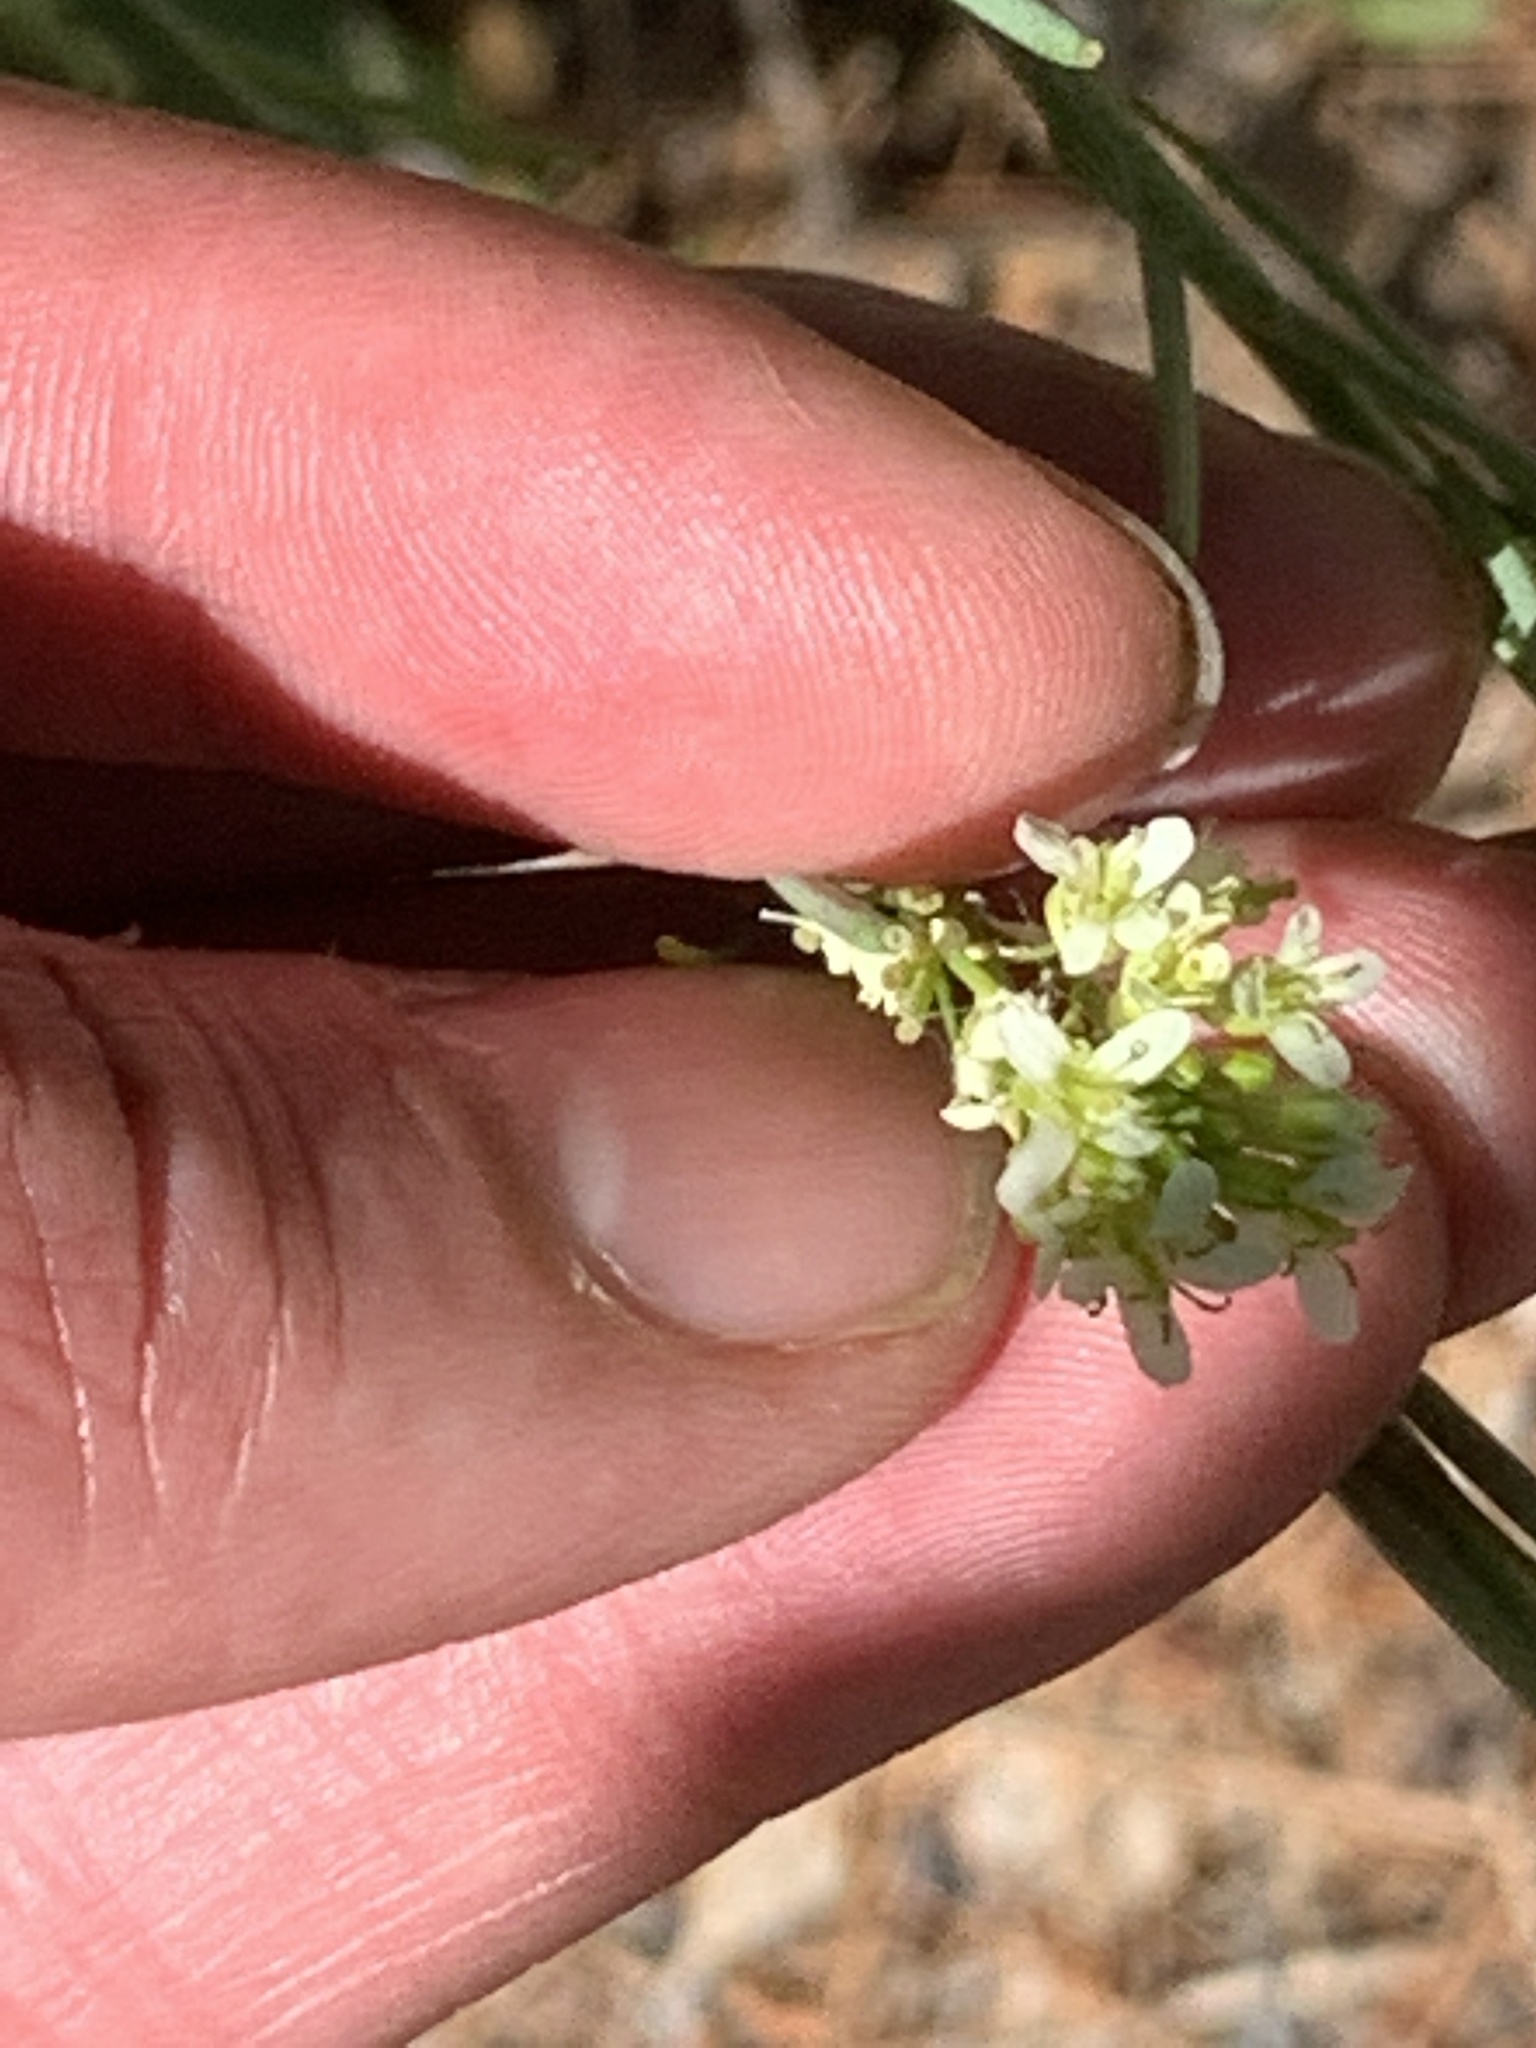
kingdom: Plantae
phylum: Tracheophyta
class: Magnoliopsida
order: Brassicales
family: Brassicaceae
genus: Turritis
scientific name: Turritis glabra
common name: Tower rockcress
